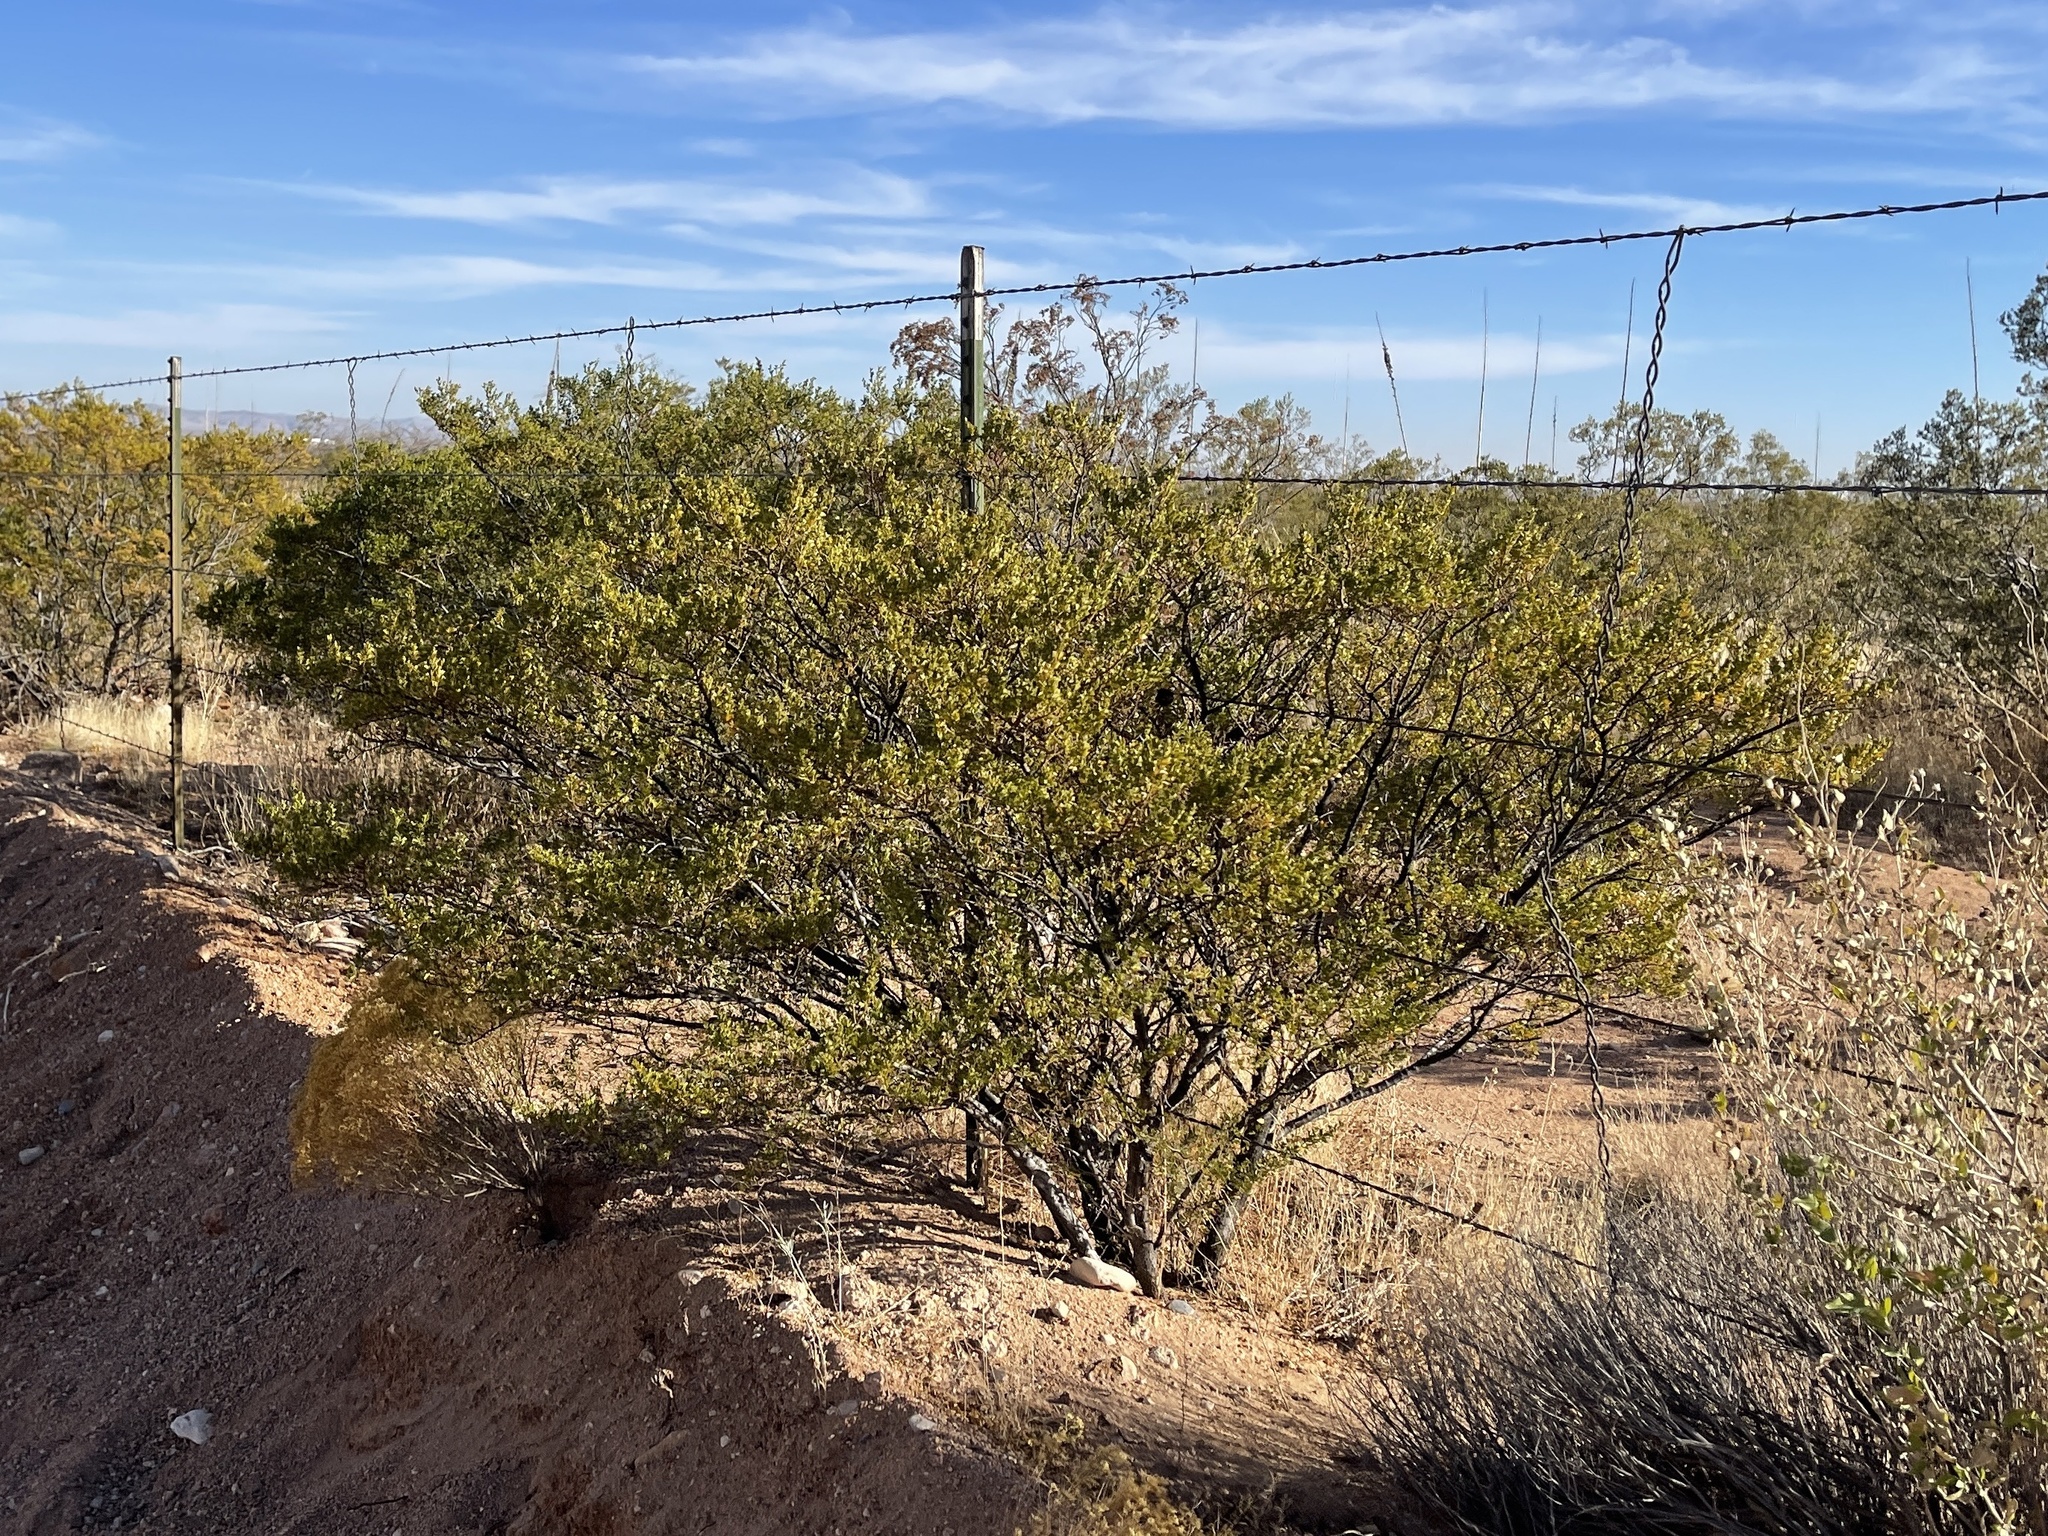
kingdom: Plantae
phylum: Tracheophyta
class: Magnoliopsida
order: Zygophyllales
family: Zygophyllaceae
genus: Larrea
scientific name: Larrea tridentata
